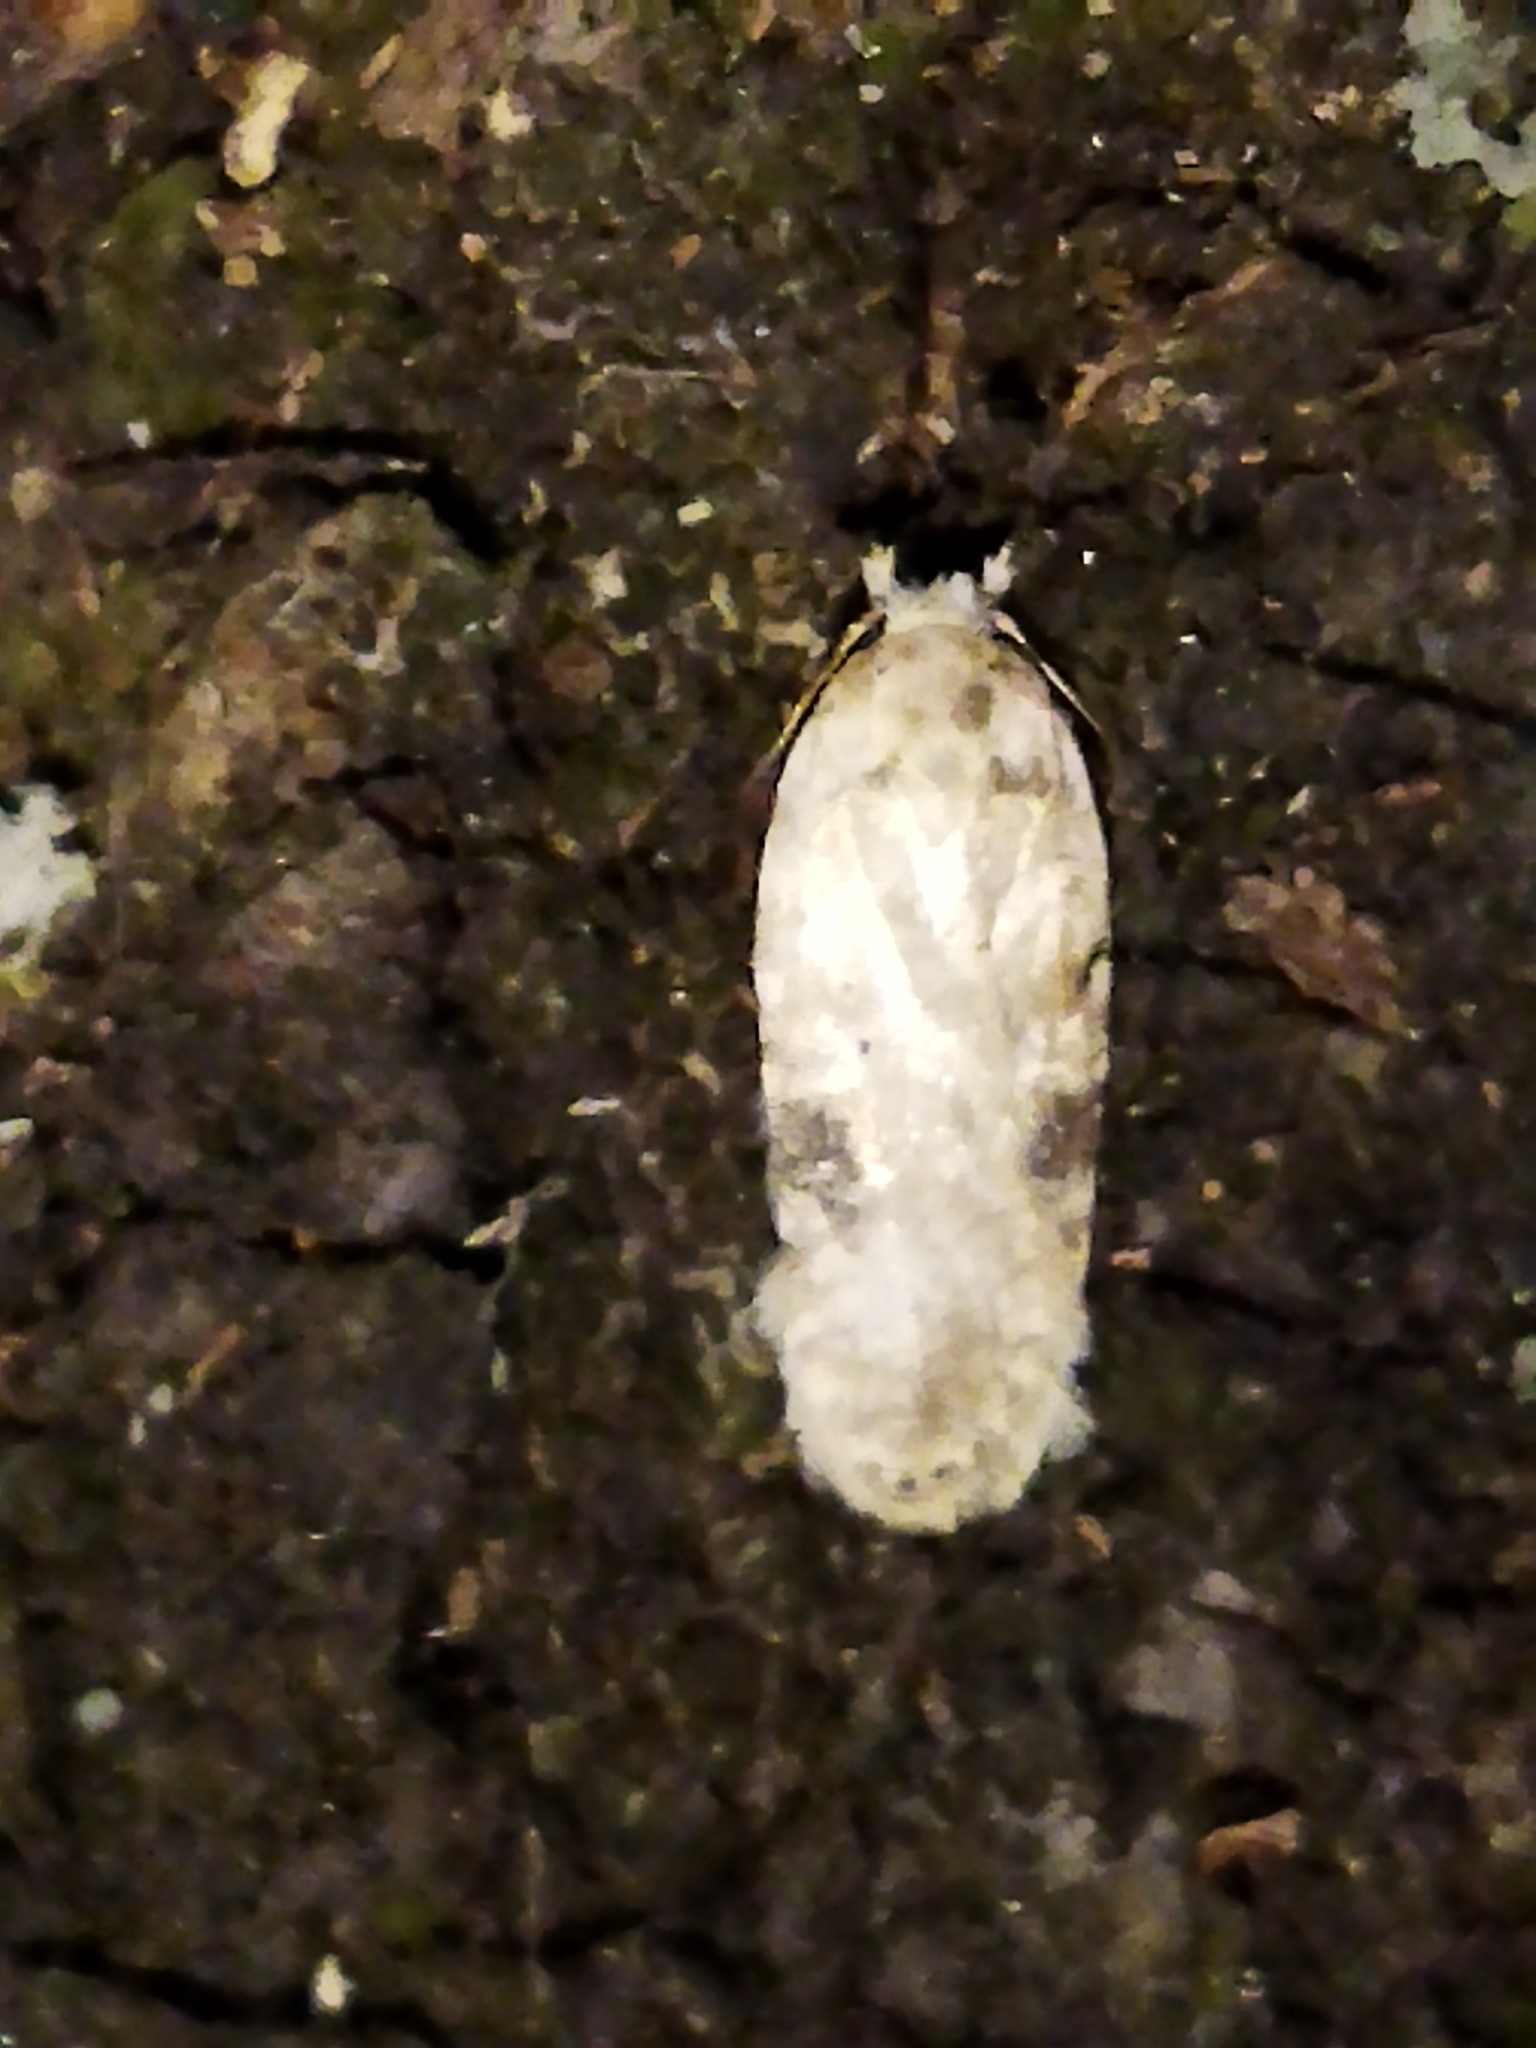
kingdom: Animalia
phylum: Arthropoda
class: Insecta
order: Lepidoptera
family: Depressariidae
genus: Agonopterix
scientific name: Agonopterix alstroemeriana
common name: Moth
